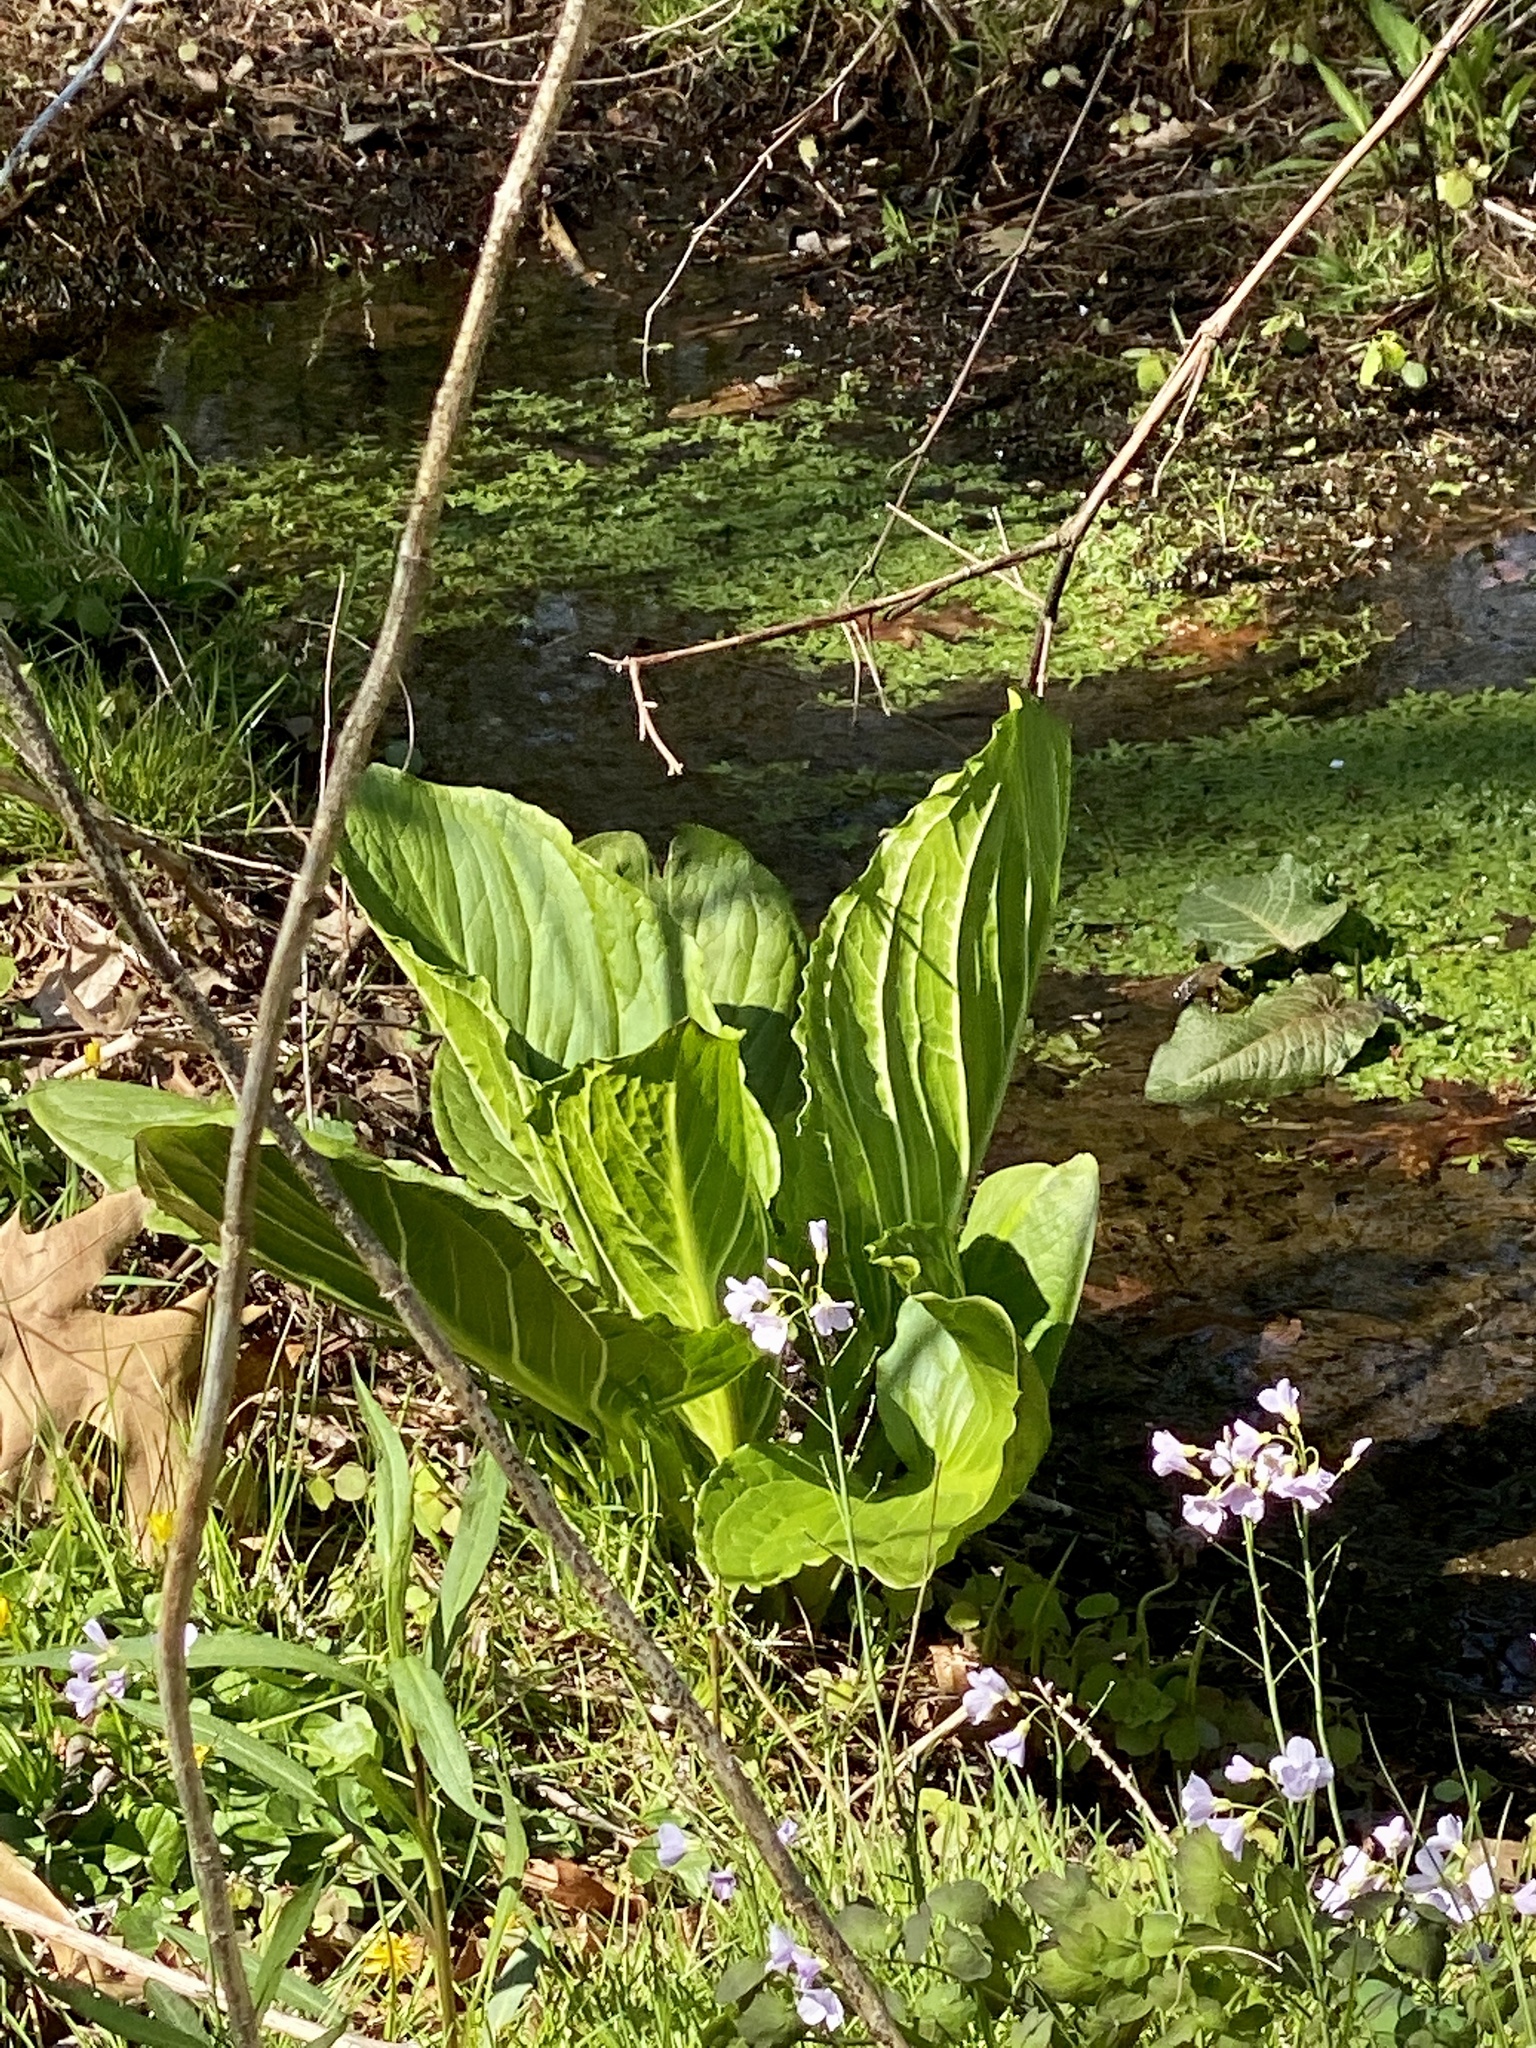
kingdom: Plantae
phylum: Tracheophyta
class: Liliopsida
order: Alismatales
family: Araceae
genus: Symplocarpus
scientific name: Symplocarpus foetidus
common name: Eastern skunk cabbage
